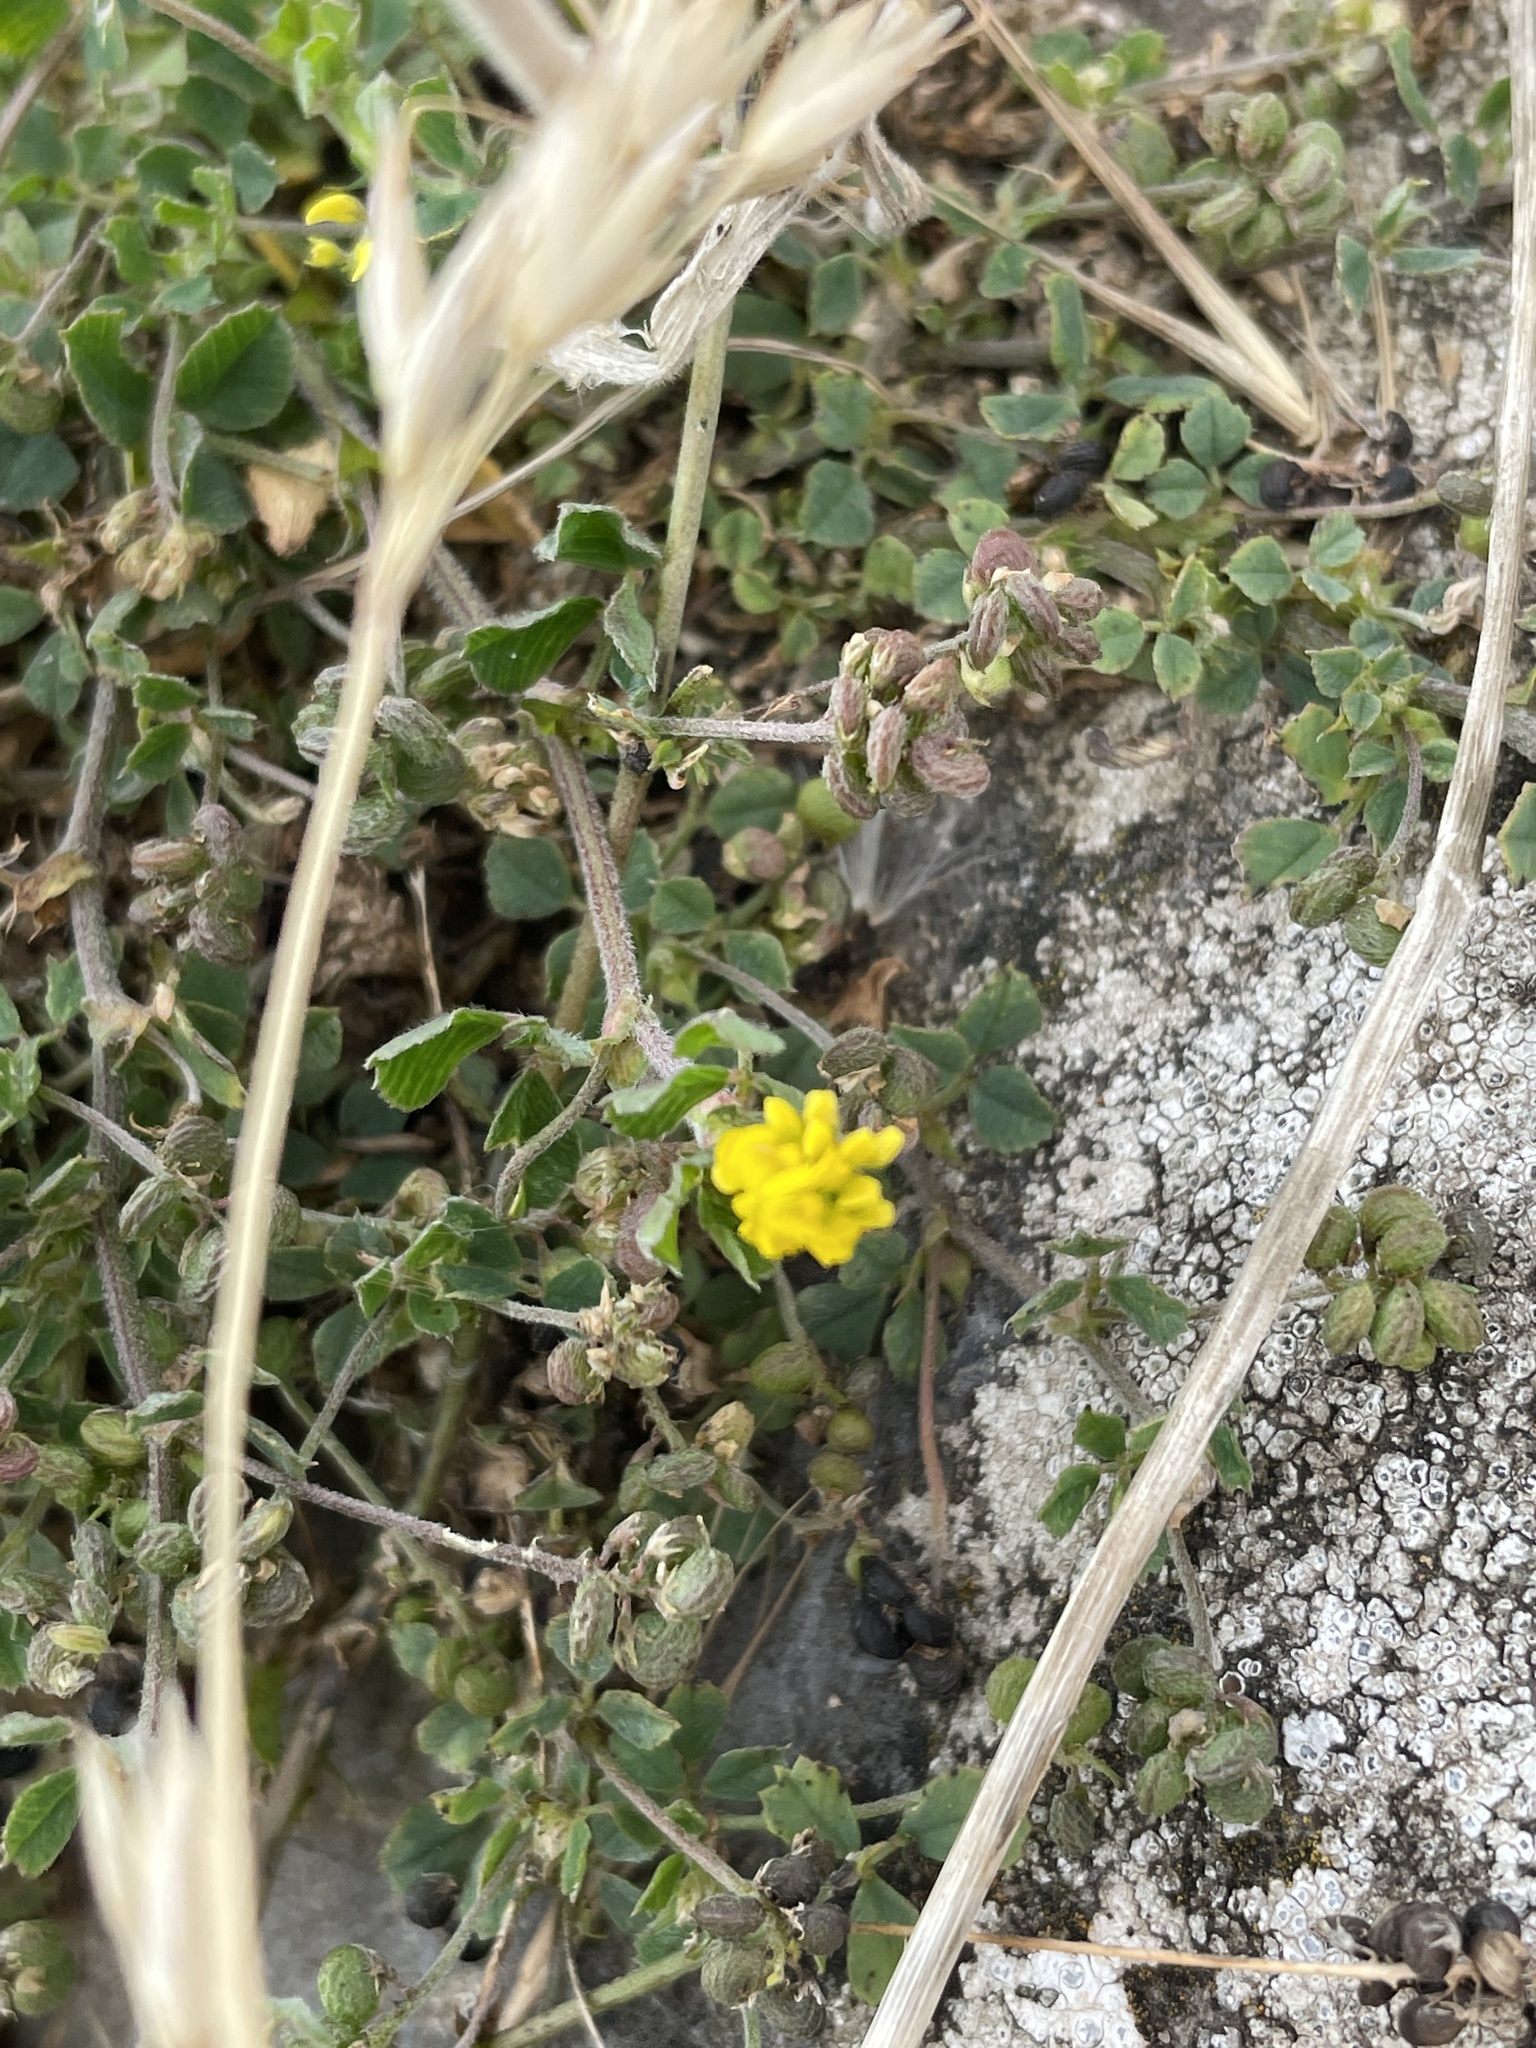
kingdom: Plantae
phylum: Tracheophyta
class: Magnoliopsida
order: Fabales
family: Fabaceae
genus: Medicago
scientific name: Medicago lupulina
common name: Black medick
